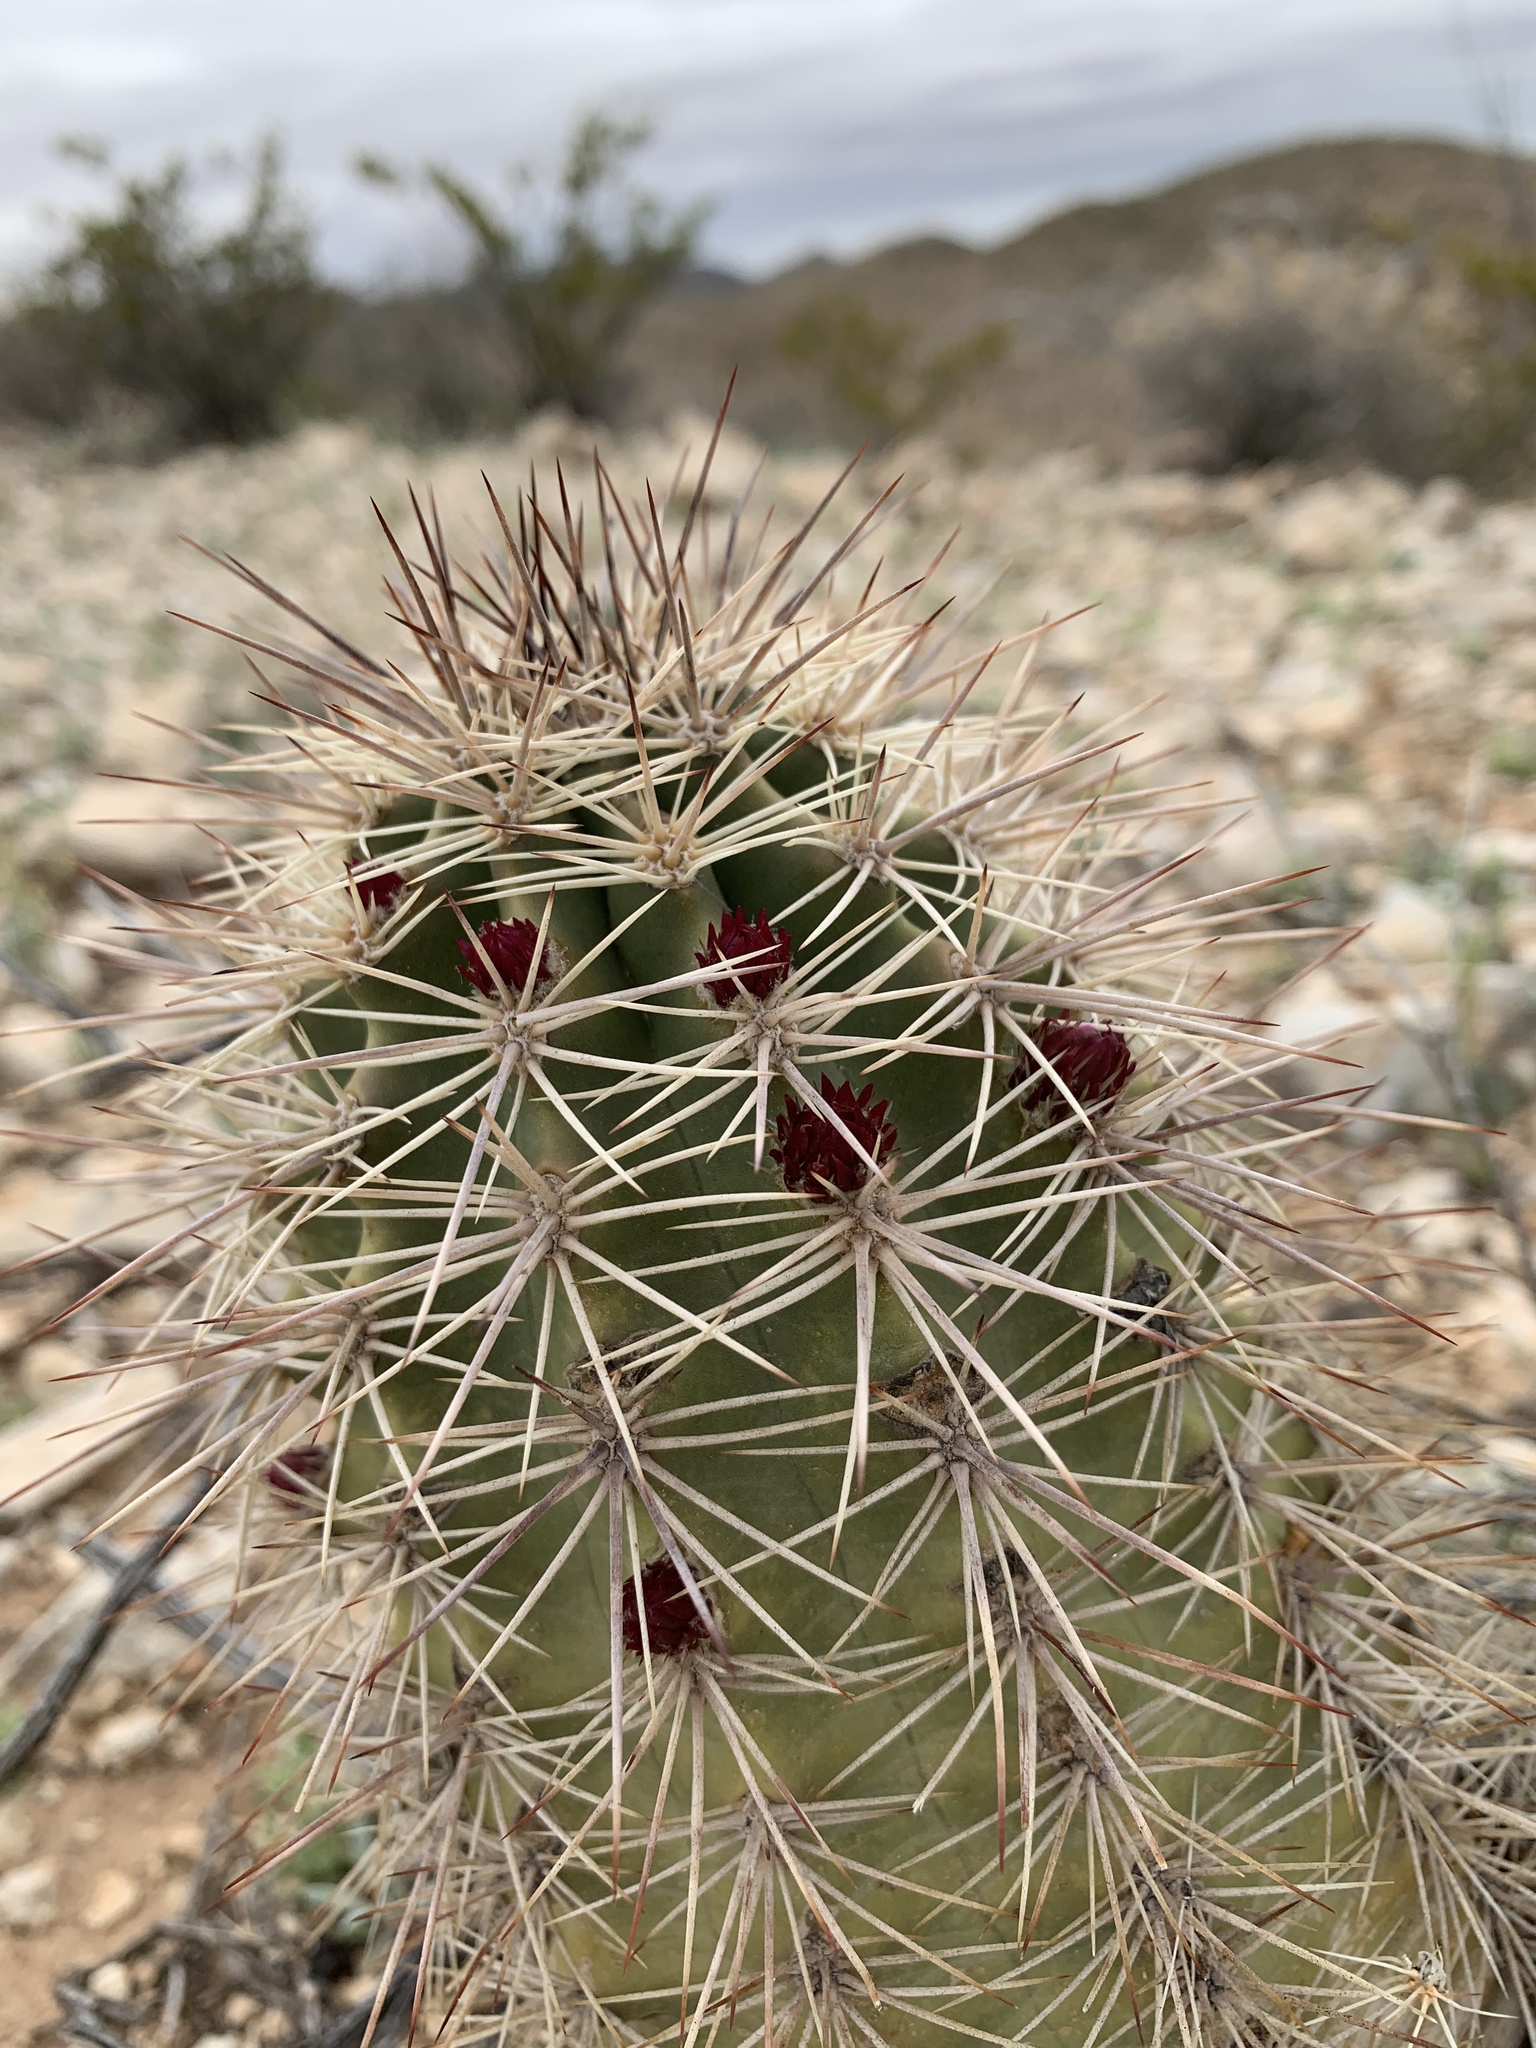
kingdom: Plantae
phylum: Tracheophyta
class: Magnoliopsida
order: Caryophyllales
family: Cactaceae
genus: Echinocereus
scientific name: Echinocereus coccineus
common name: Scarlet hedgehog cactus
